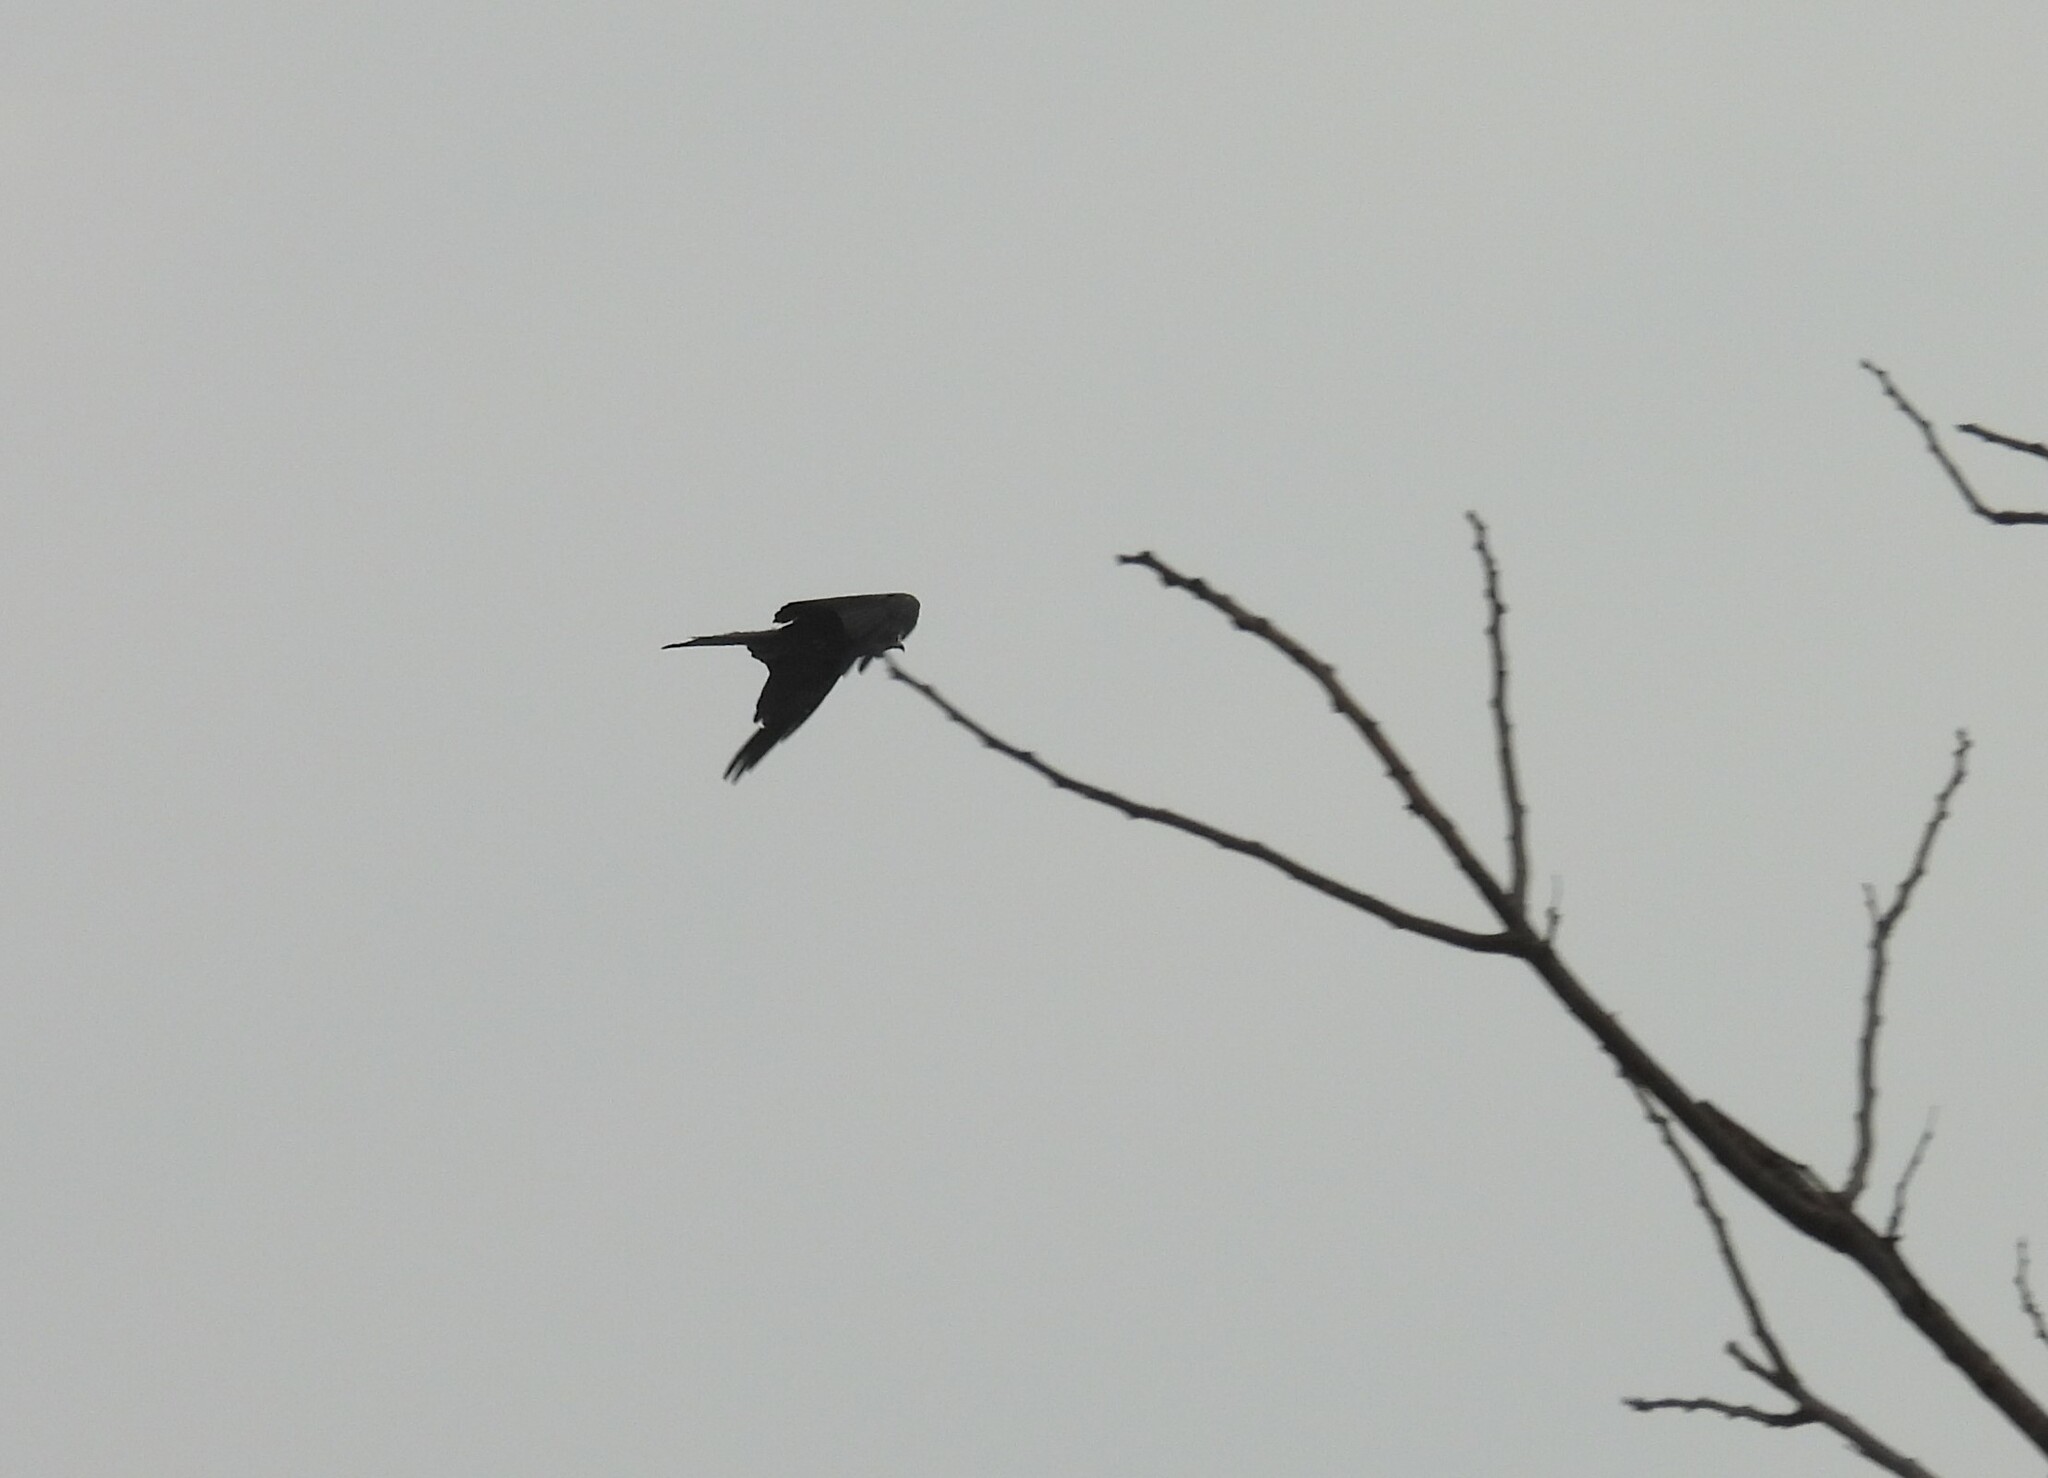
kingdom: Animalia
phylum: Chordata
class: Aves
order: Accipitriformes
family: Accipitridae
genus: Milvus
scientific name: Milvus migrans
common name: Black kite
